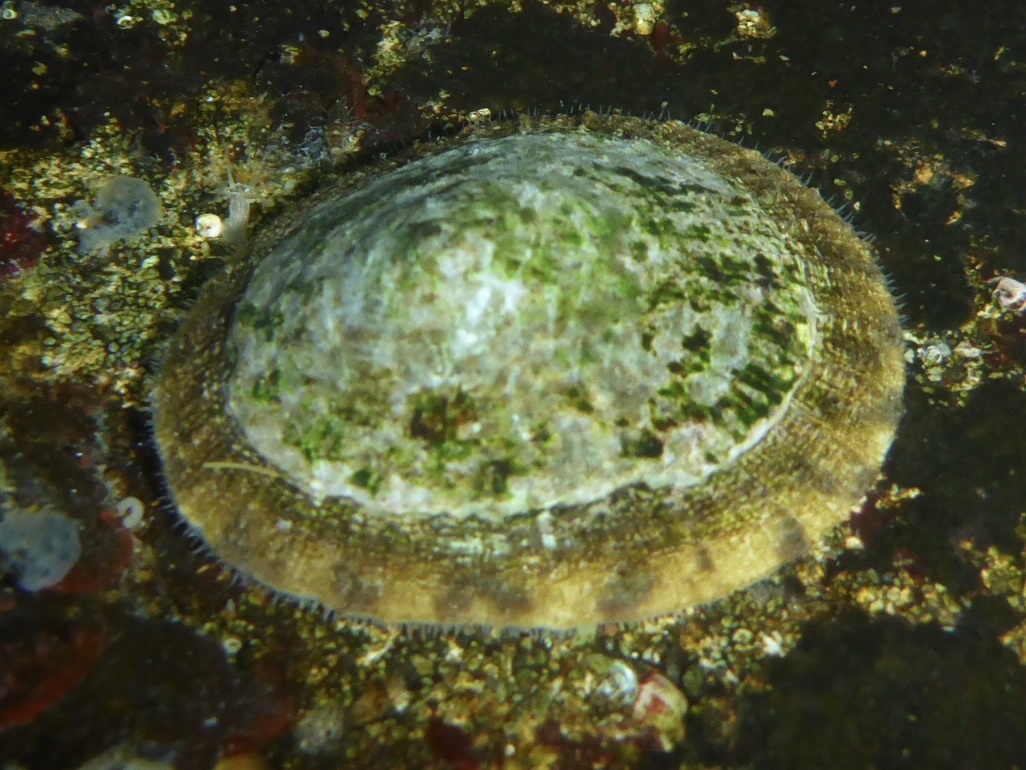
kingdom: Animalia
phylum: Mollusca
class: Gastropoda
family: Lottiidae
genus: Lottia
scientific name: Lottia limatula
